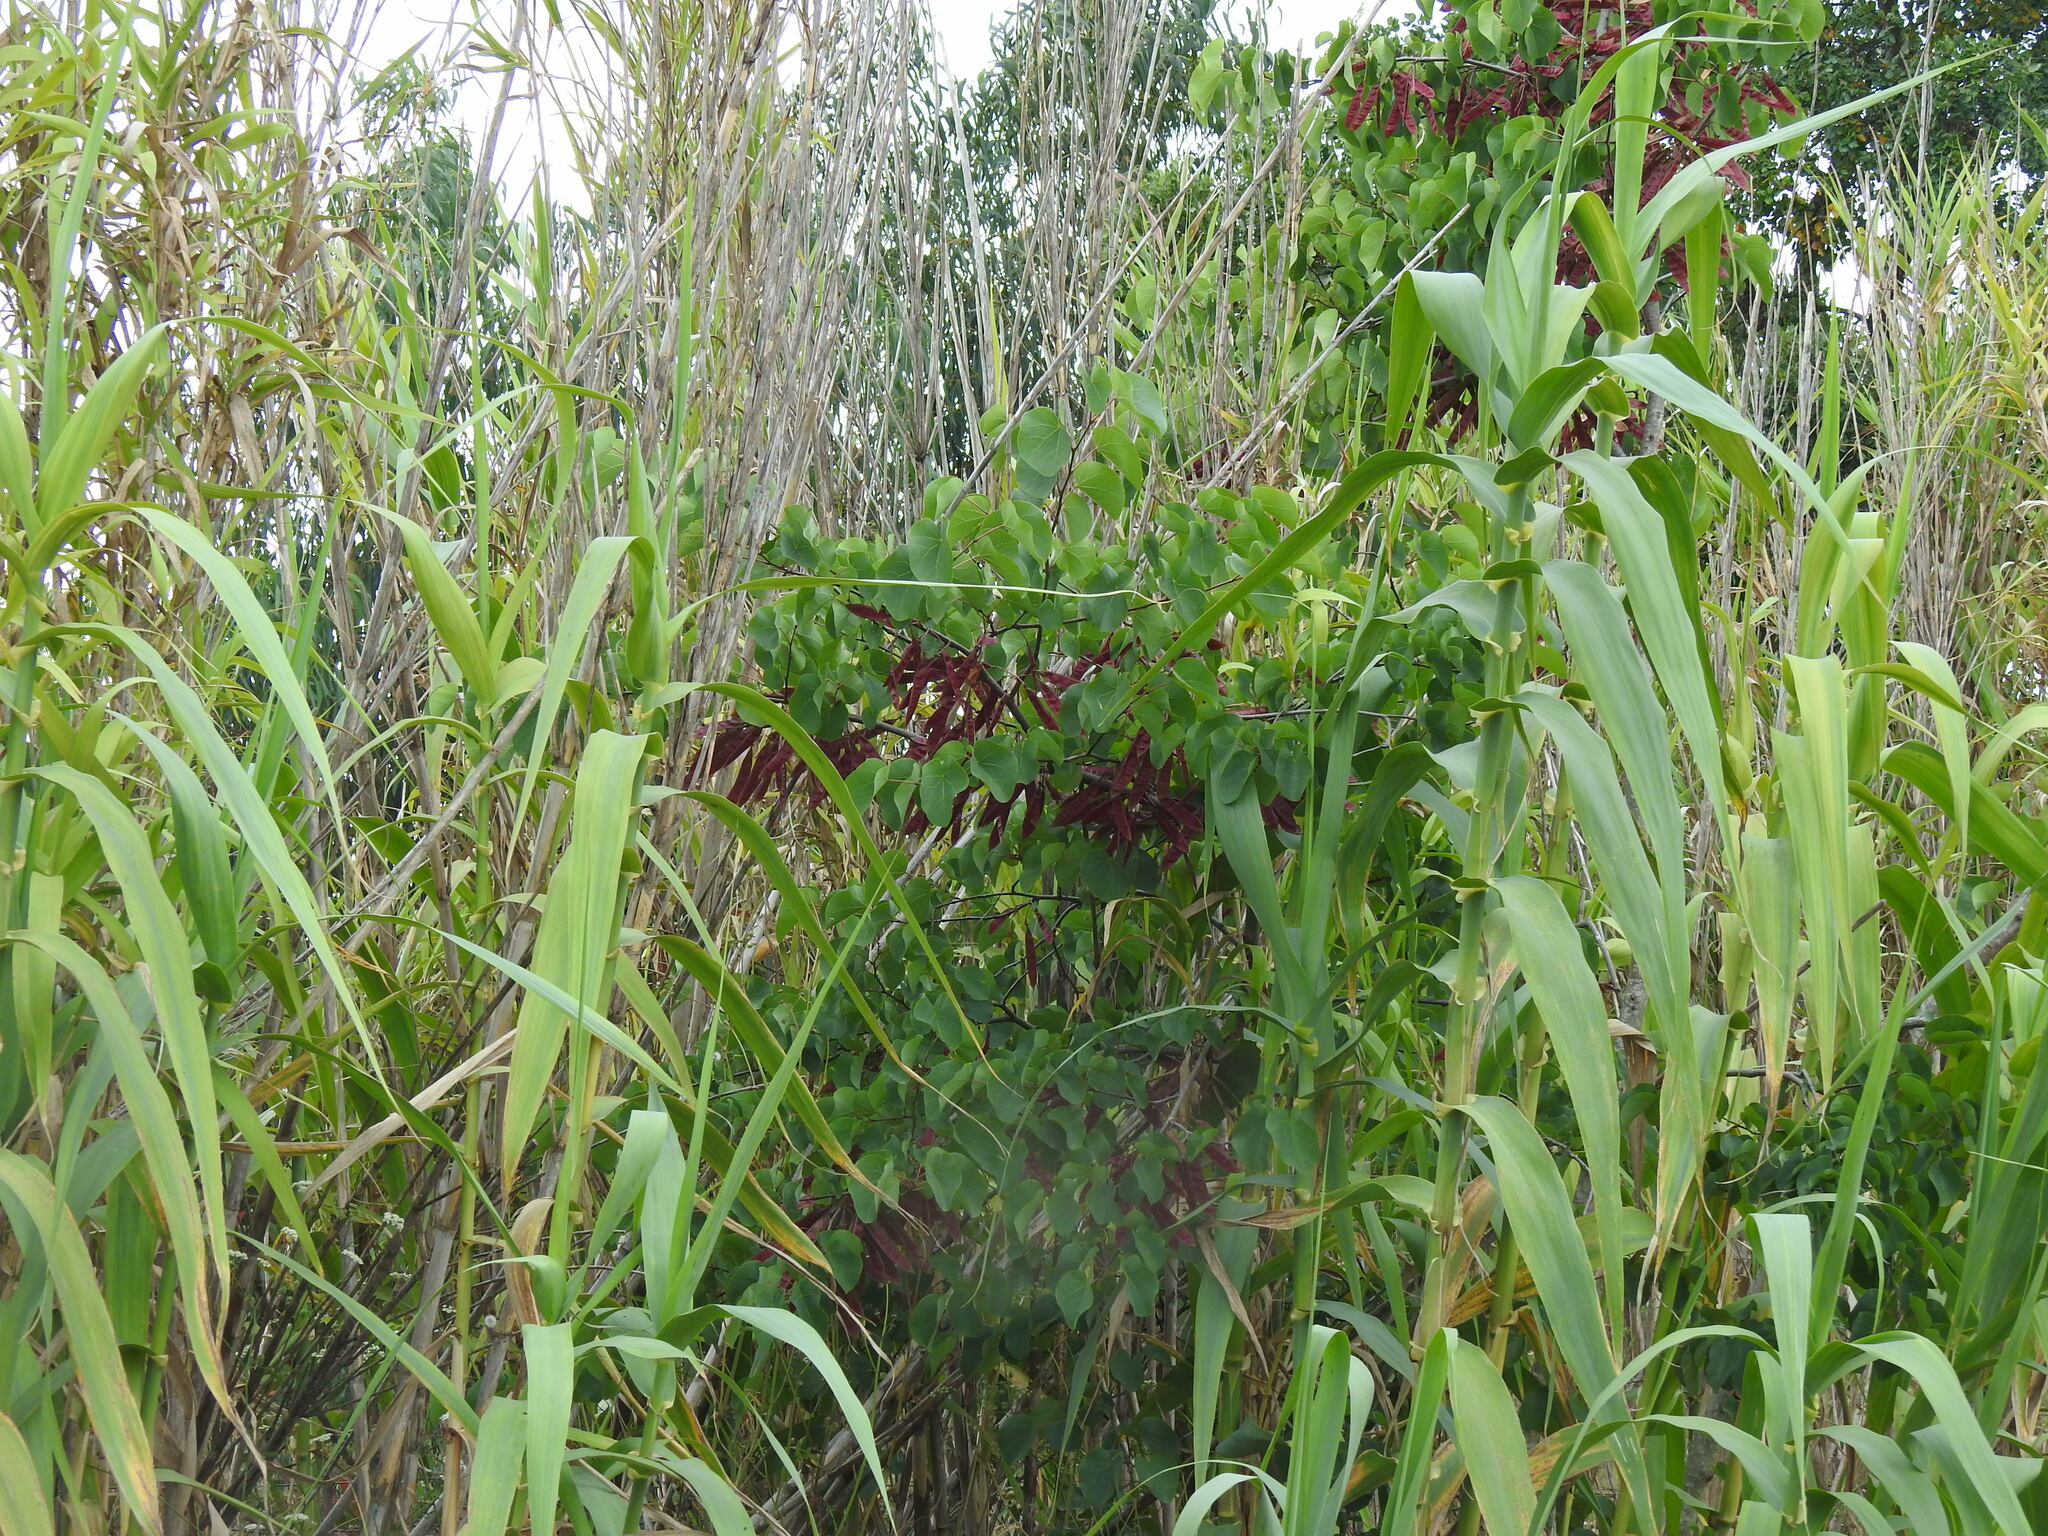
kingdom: Plantae
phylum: Tracheophyta
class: Magnoliopsida
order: Fabales
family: Fabaceae
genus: Cercis
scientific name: Cercis siliquastrum
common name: Judas tree
